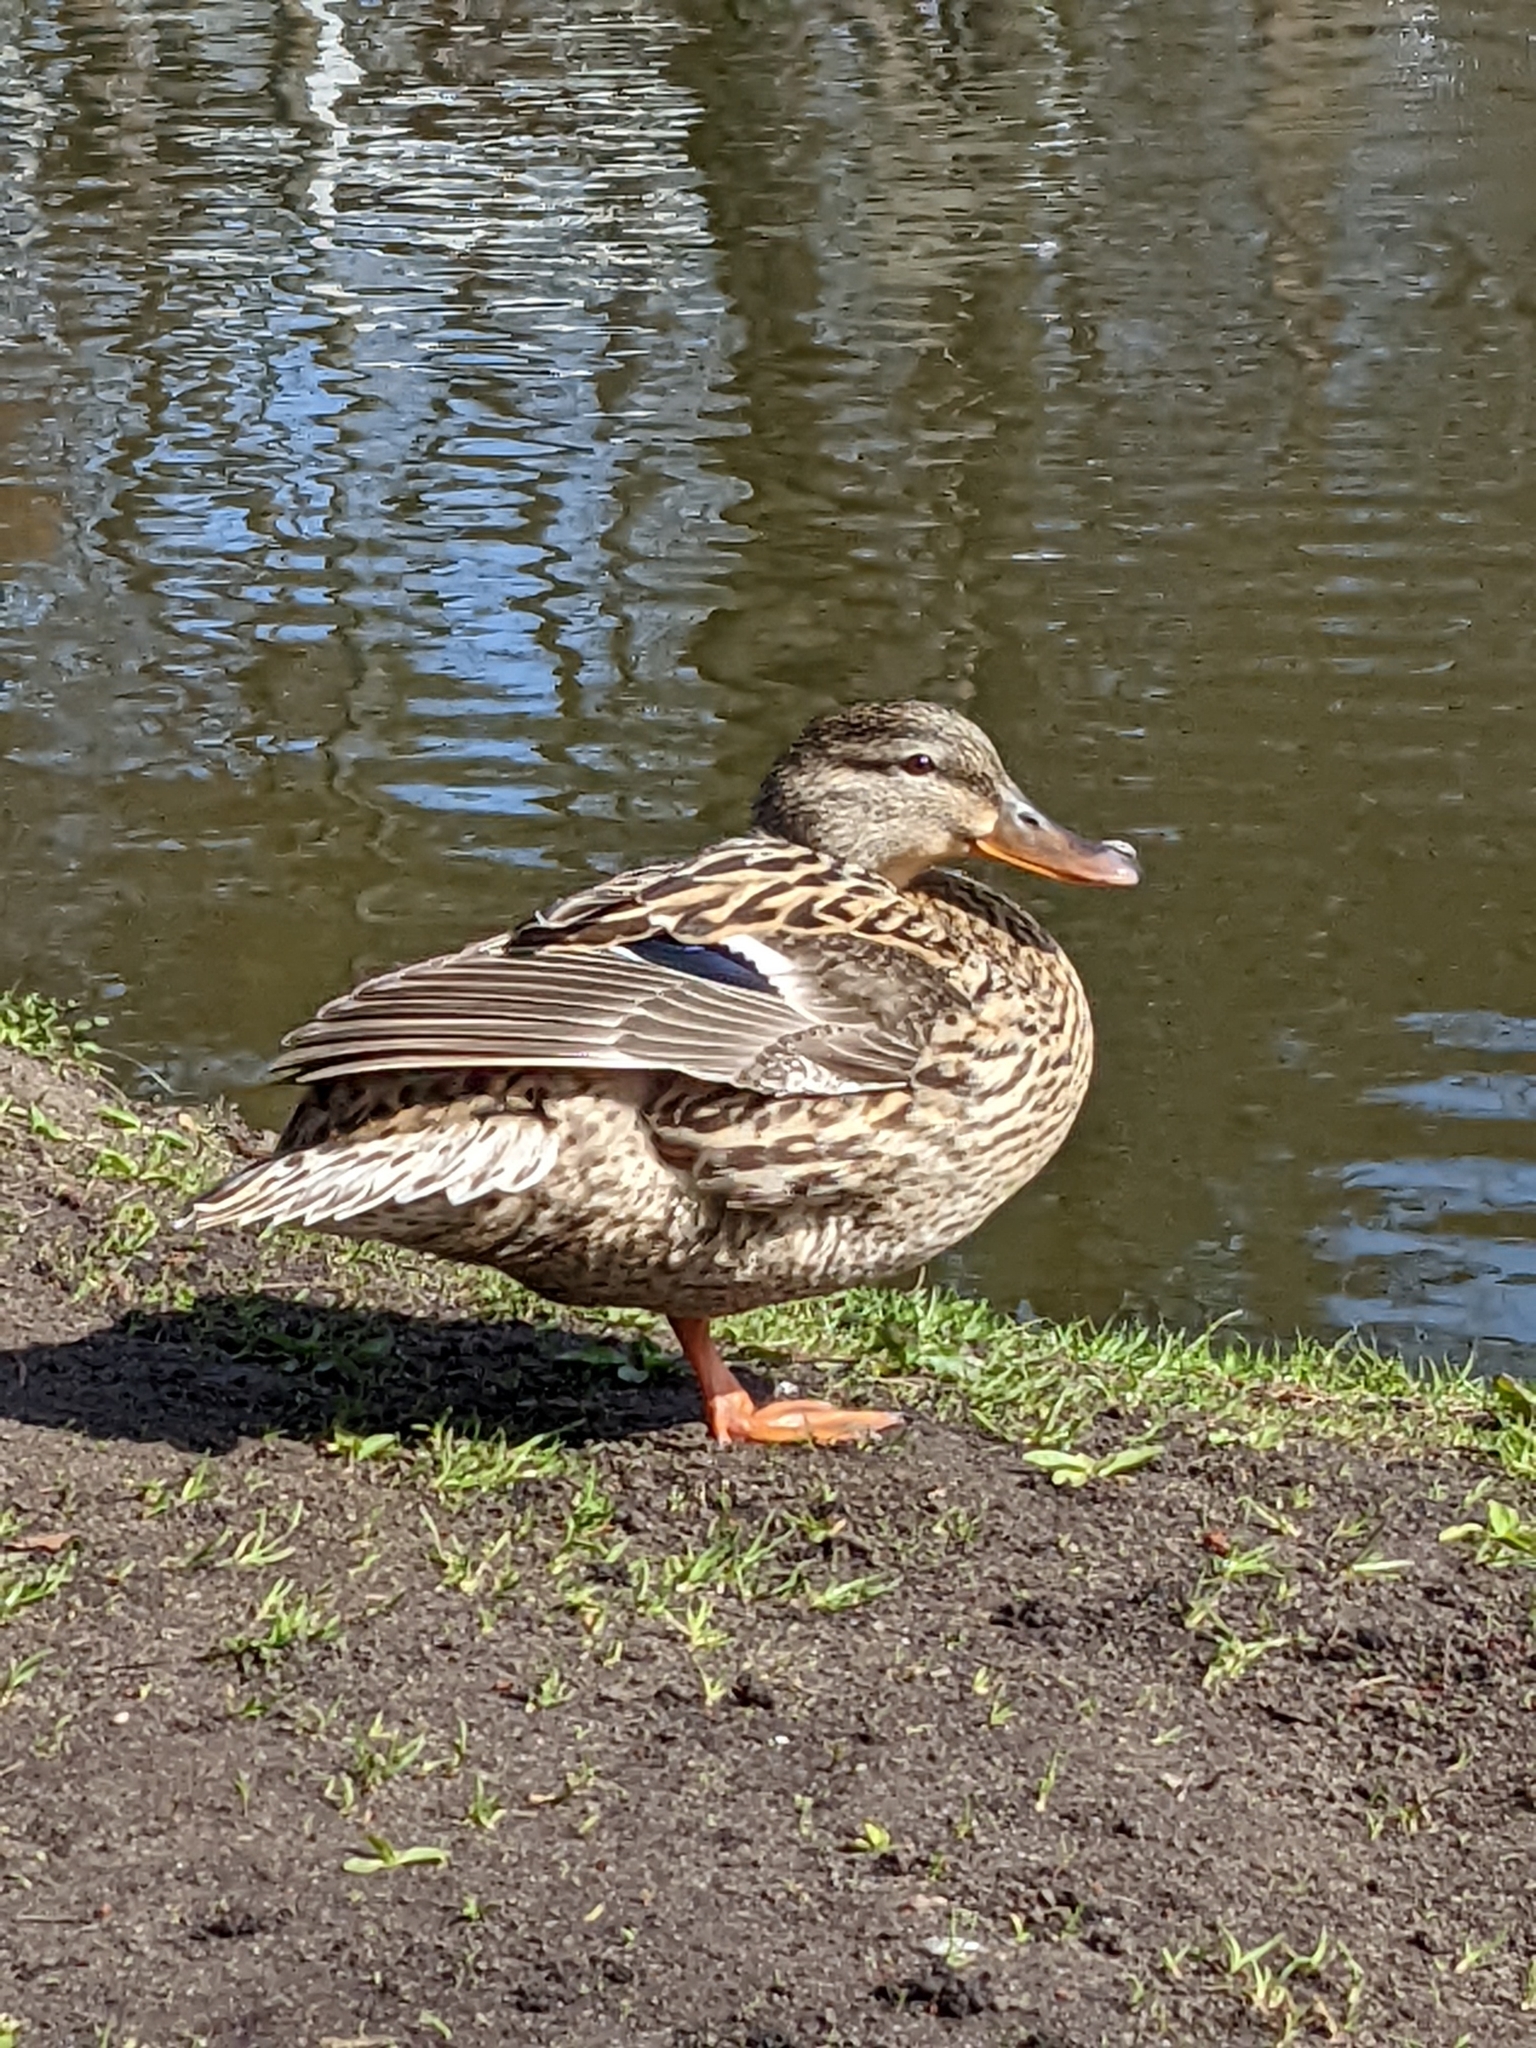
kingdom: Animalia
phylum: Chordata
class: Aves
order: Anseriformes
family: Anatidae
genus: Anas
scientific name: Anas platyrhynchos
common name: Mallard
